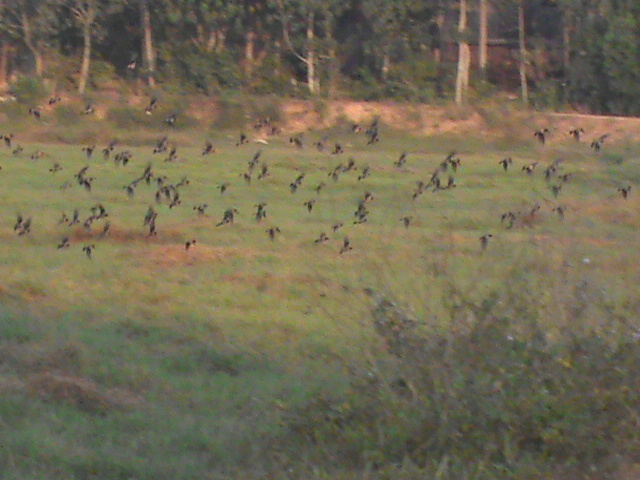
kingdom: Animalia
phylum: Chordata
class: Aves
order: Passeriformes
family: Sturnidae
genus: Pastor
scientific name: Pastor roseus
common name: Rosy starling
